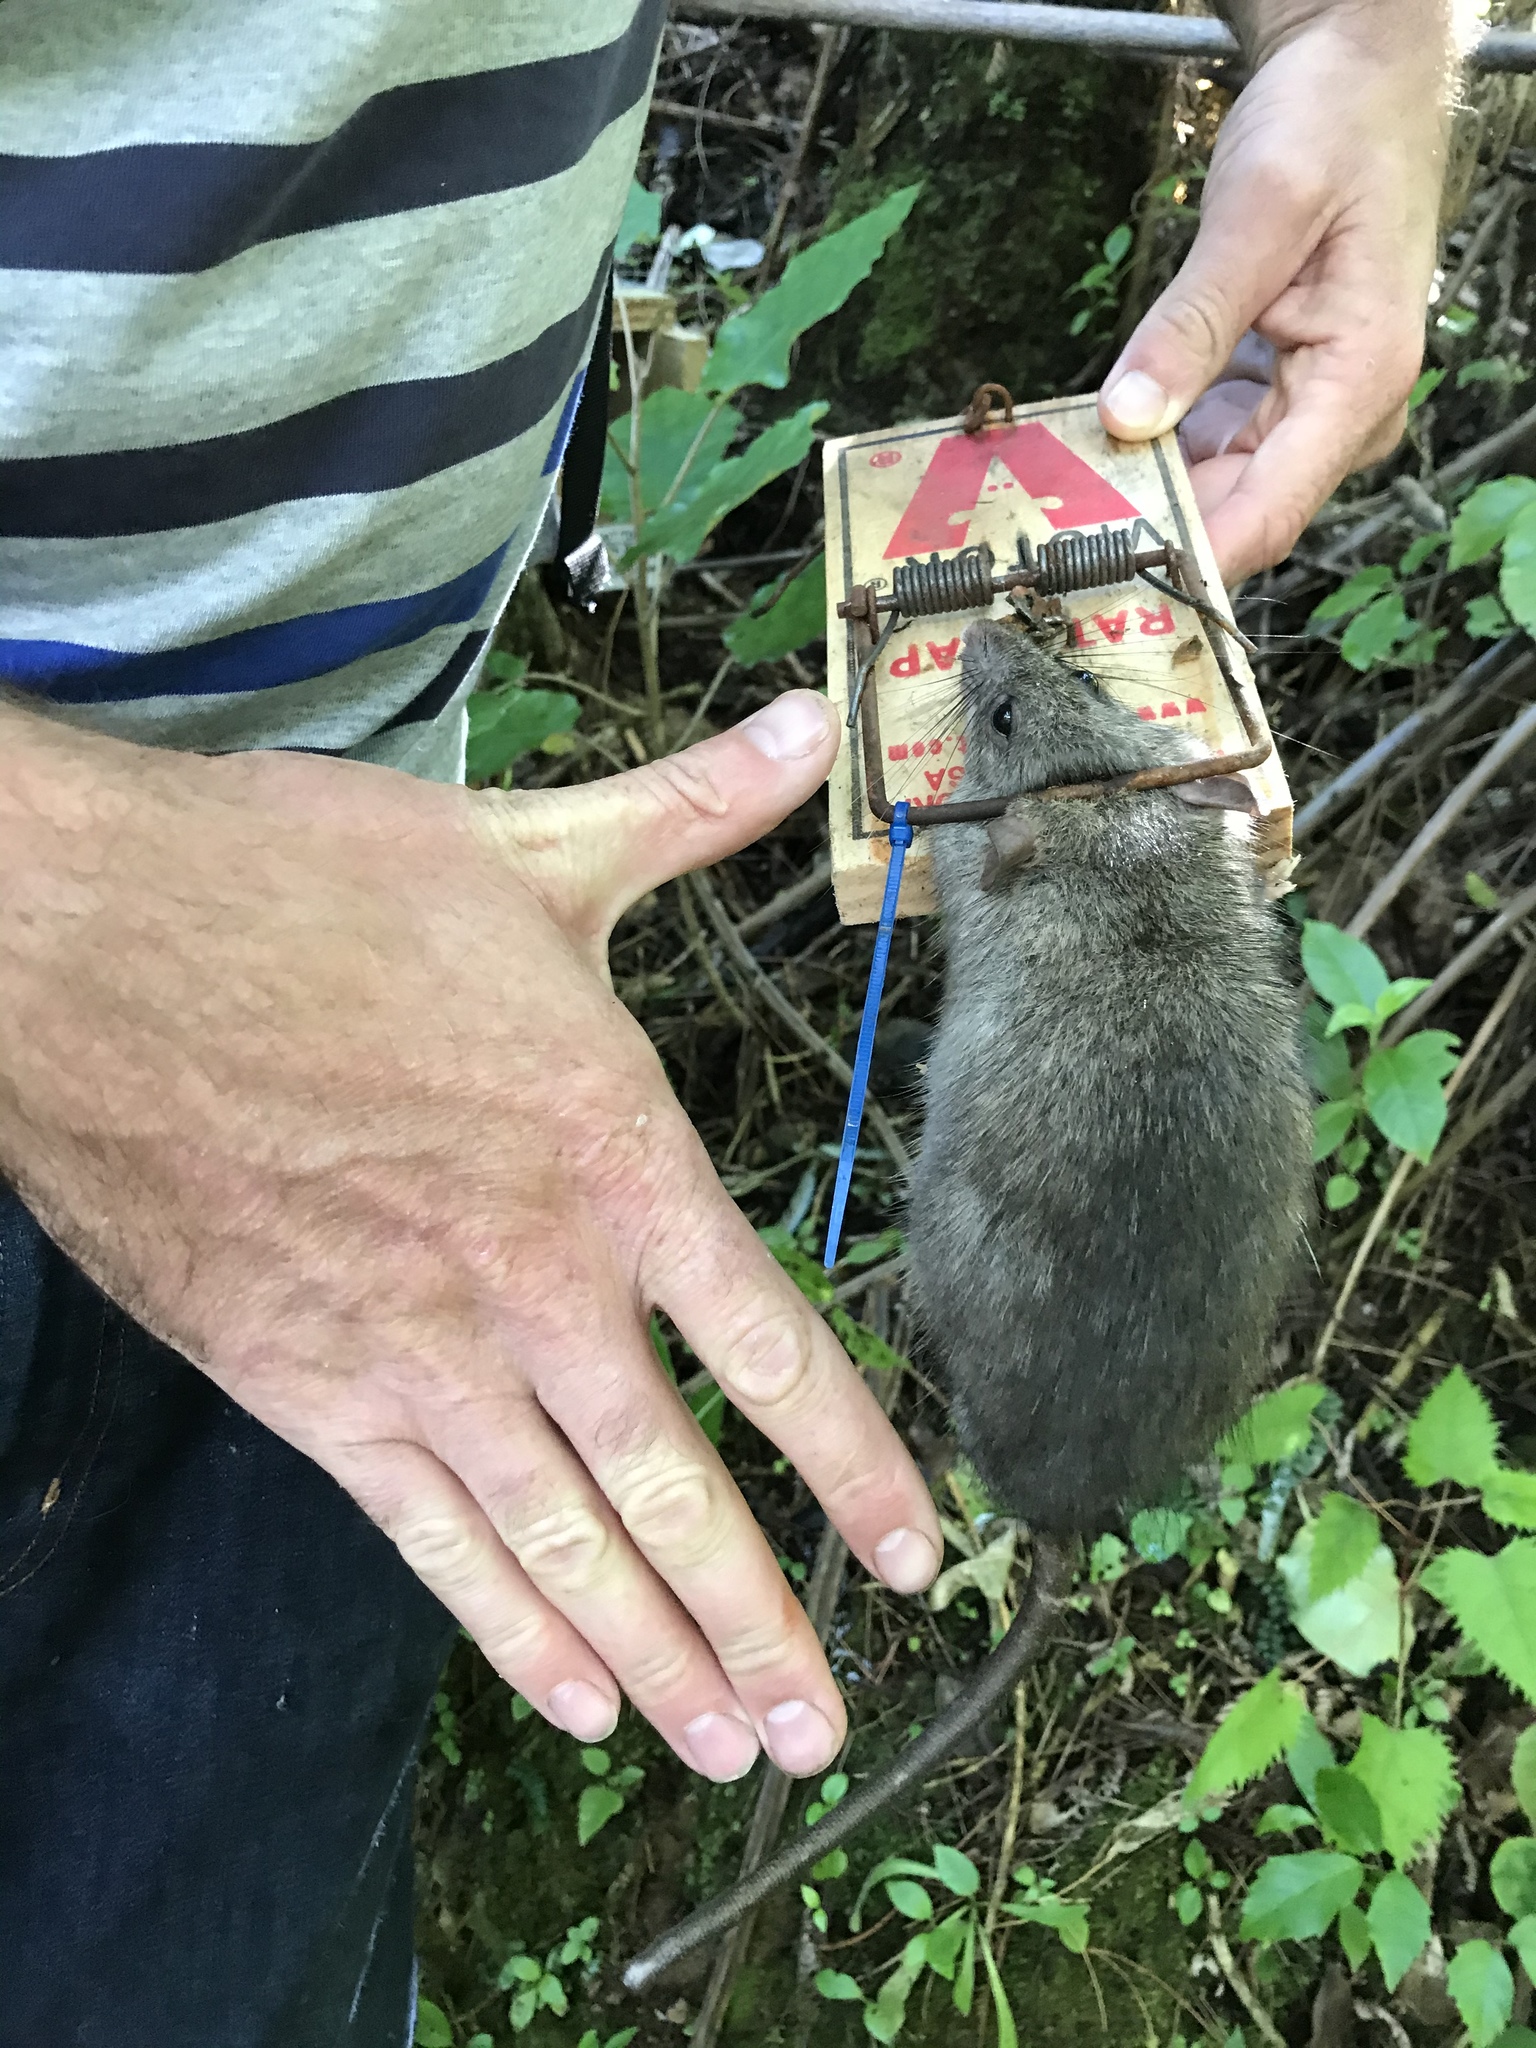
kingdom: Animalia
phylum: Chordata
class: Mammalia
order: Rodentia
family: Muridae
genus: Rattus
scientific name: Rattus rattus
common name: Black rat
